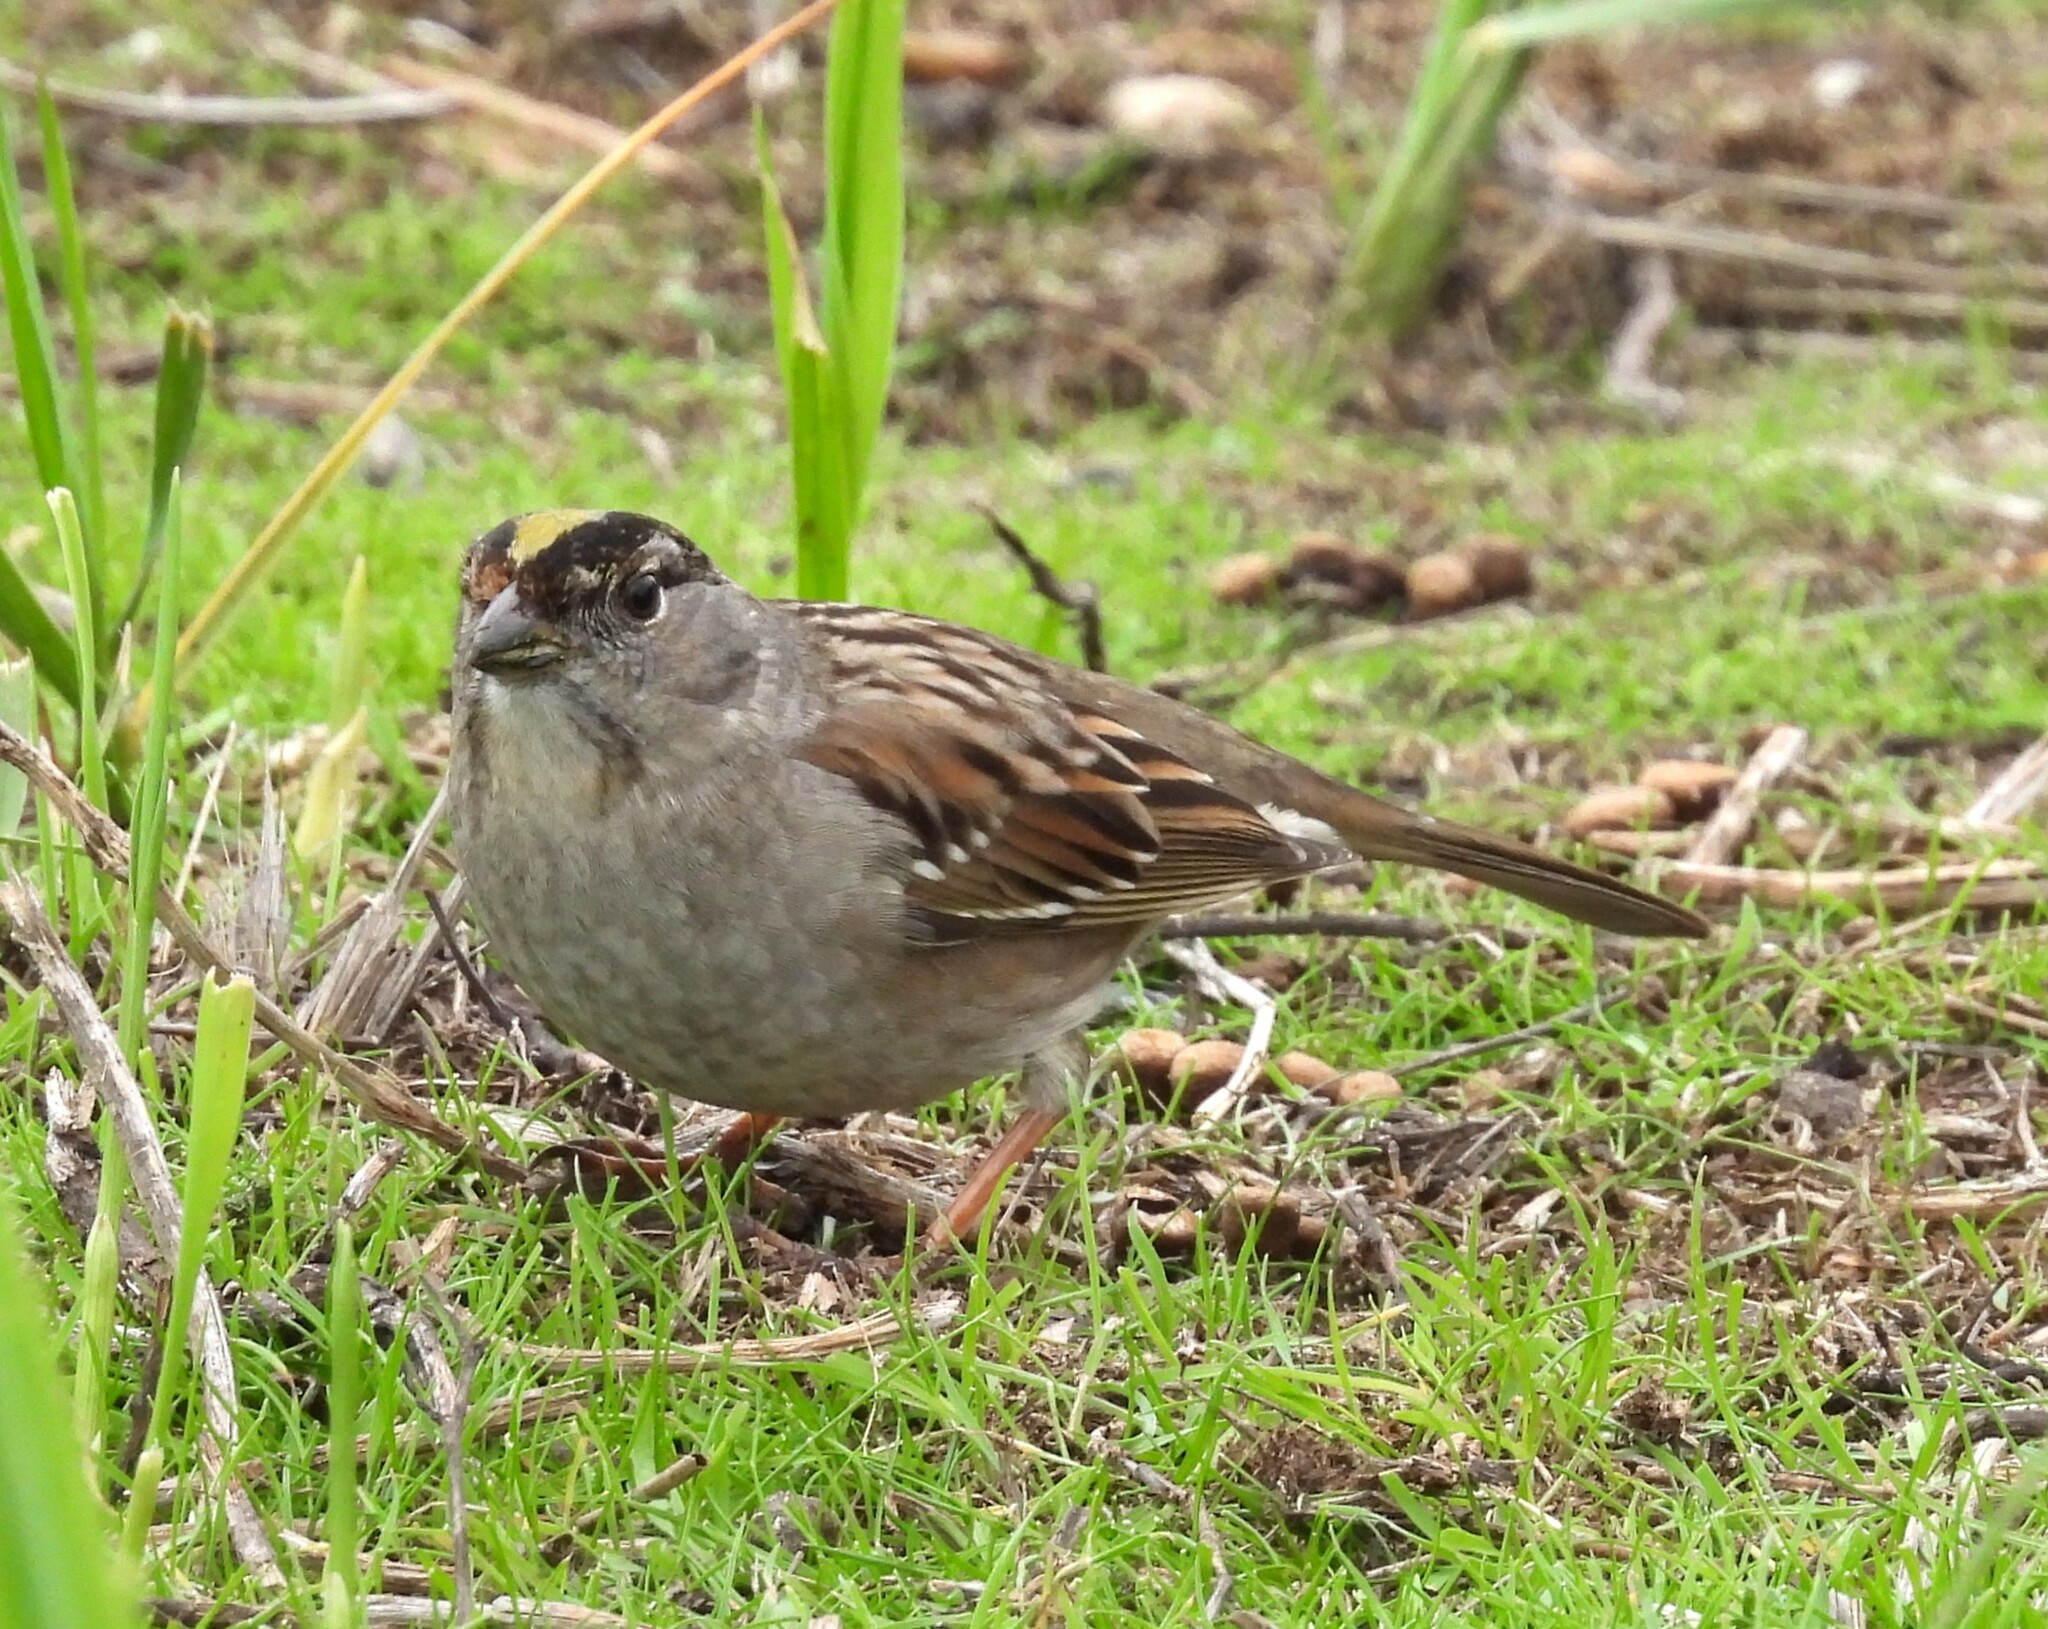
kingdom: Animalia
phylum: Chordata
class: Aves
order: Passeriformes
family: Passerellidae
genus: Zonotrichia
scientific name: Zonotrichia atricapilla
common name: Golden-crowned sparrow
